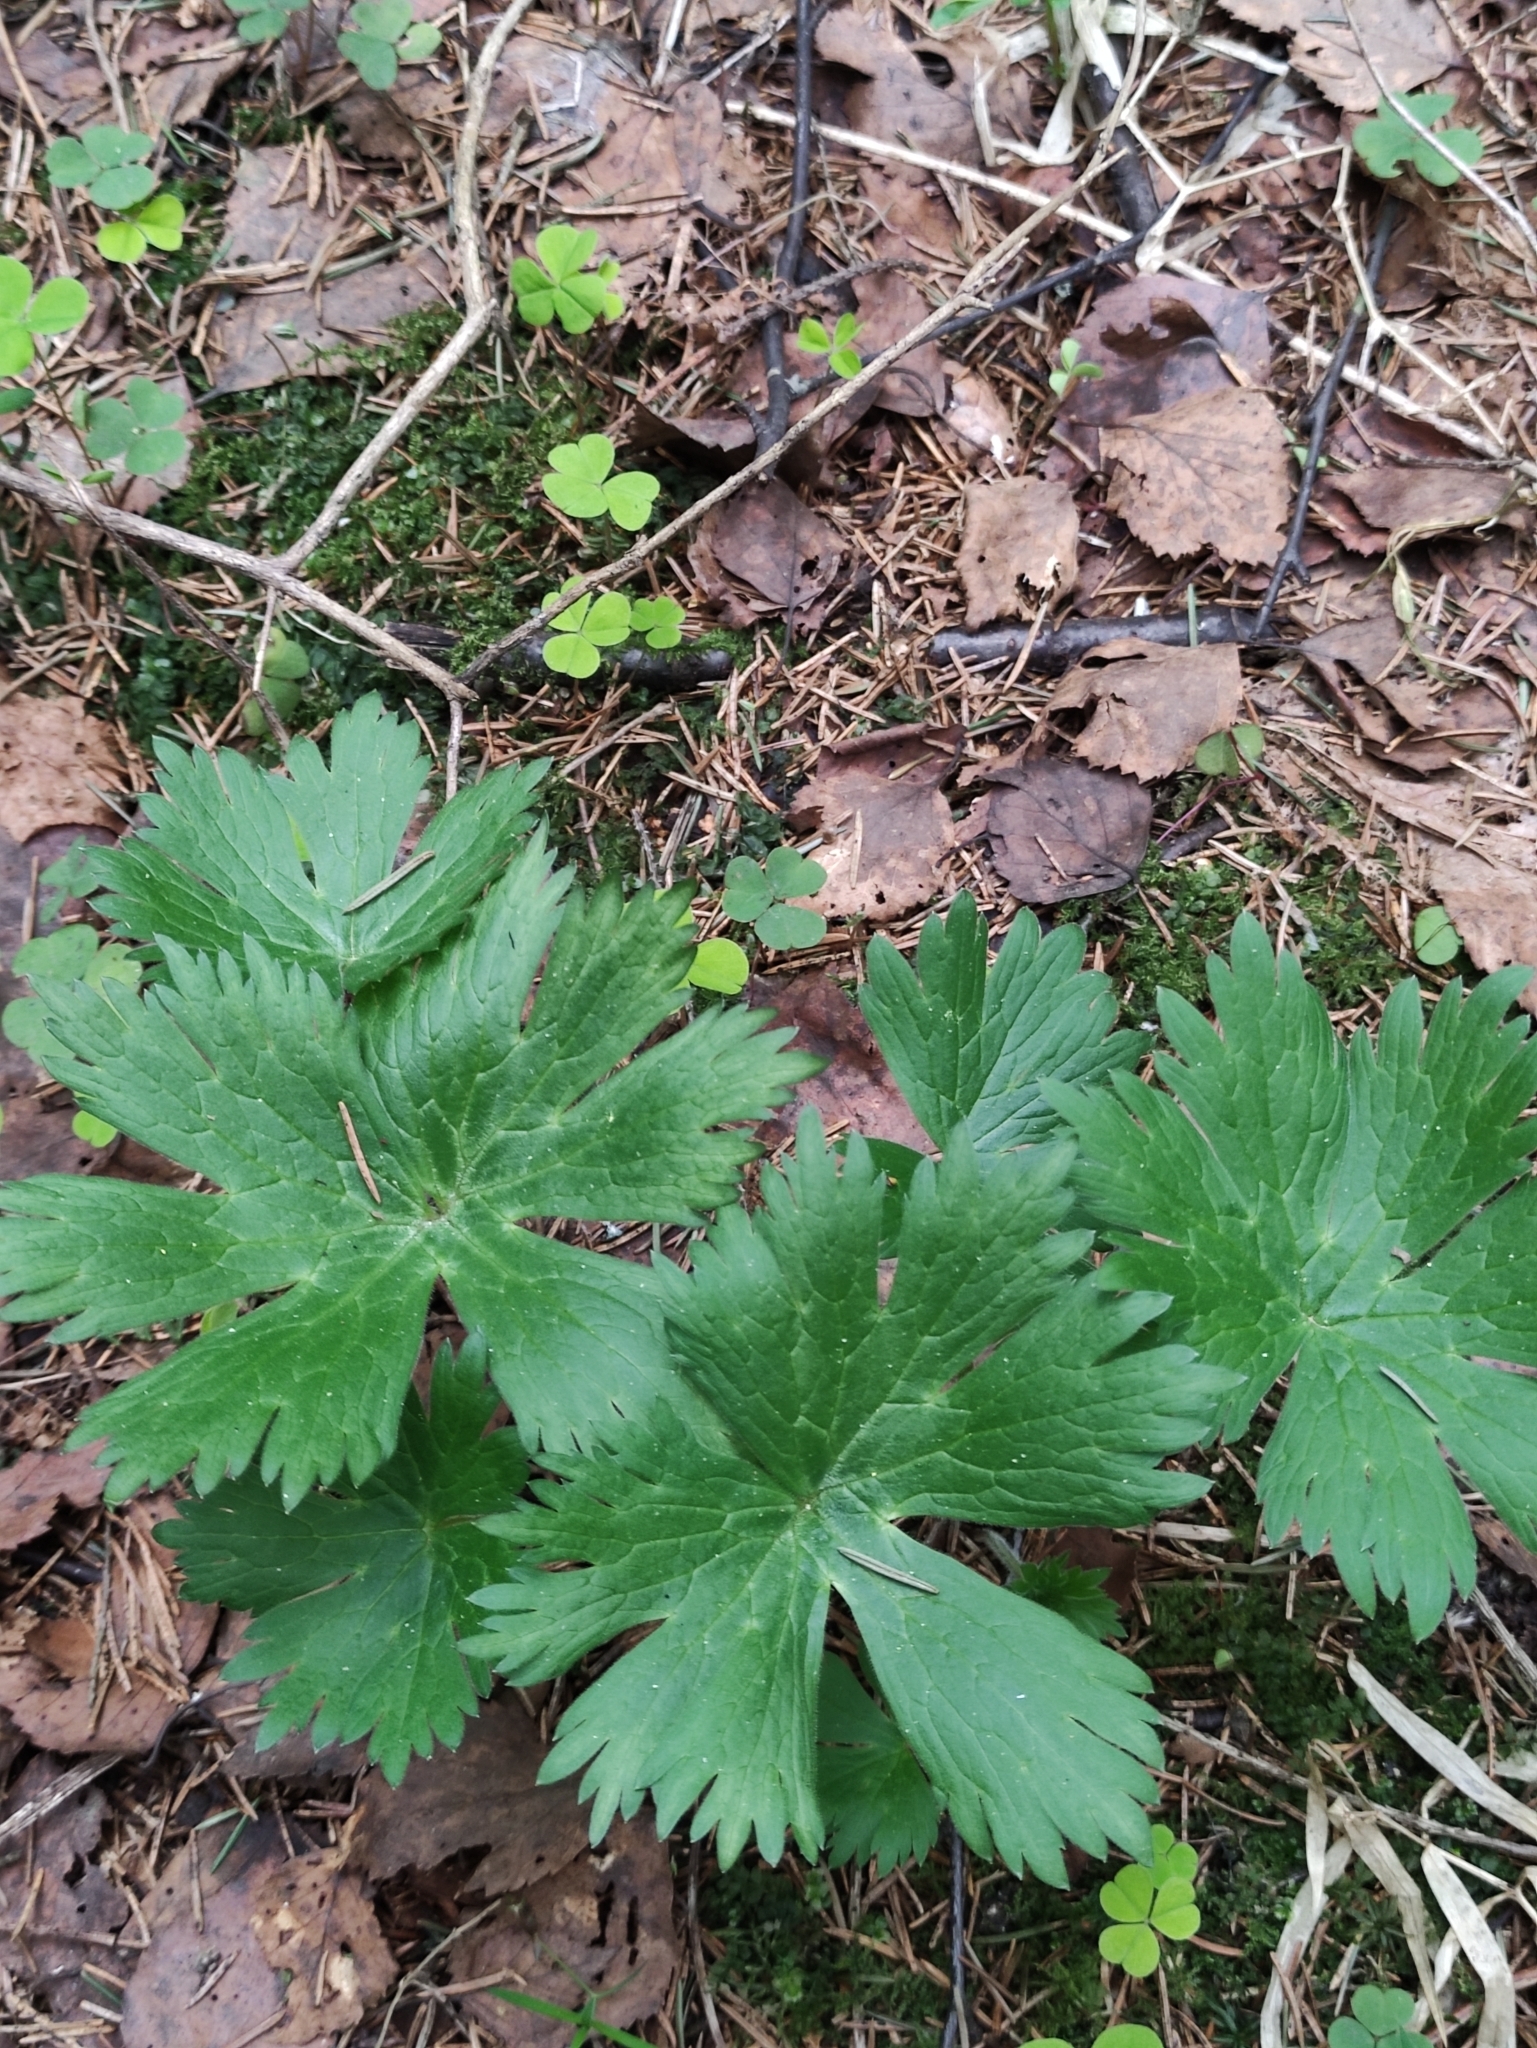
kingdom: Plantae
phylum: Tracheophyta
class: Magnoliopsida
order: Ranunculales
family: Ranunculaceae
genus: Aconitum
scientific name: Aconitum septentrionale
